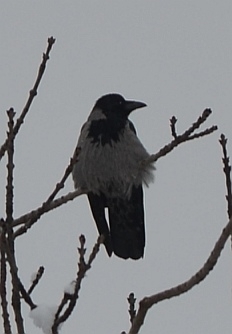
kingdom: Animalia
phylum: Chordata
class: Aves
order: Passeriformes
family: Corvidae
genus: Corvus
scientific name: Corvus cornix
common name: Hooded crow
